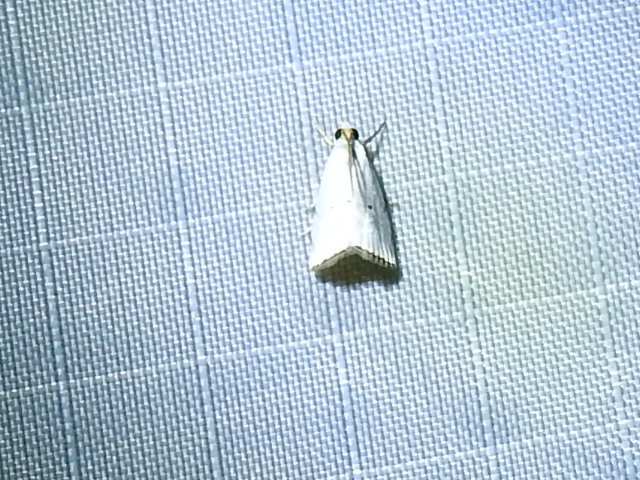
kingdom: Animalia
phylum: Arthropoda
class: Insecta
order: Lepidoptera
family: Crambidae
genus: Argyria
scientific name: Argyria pusillalis
